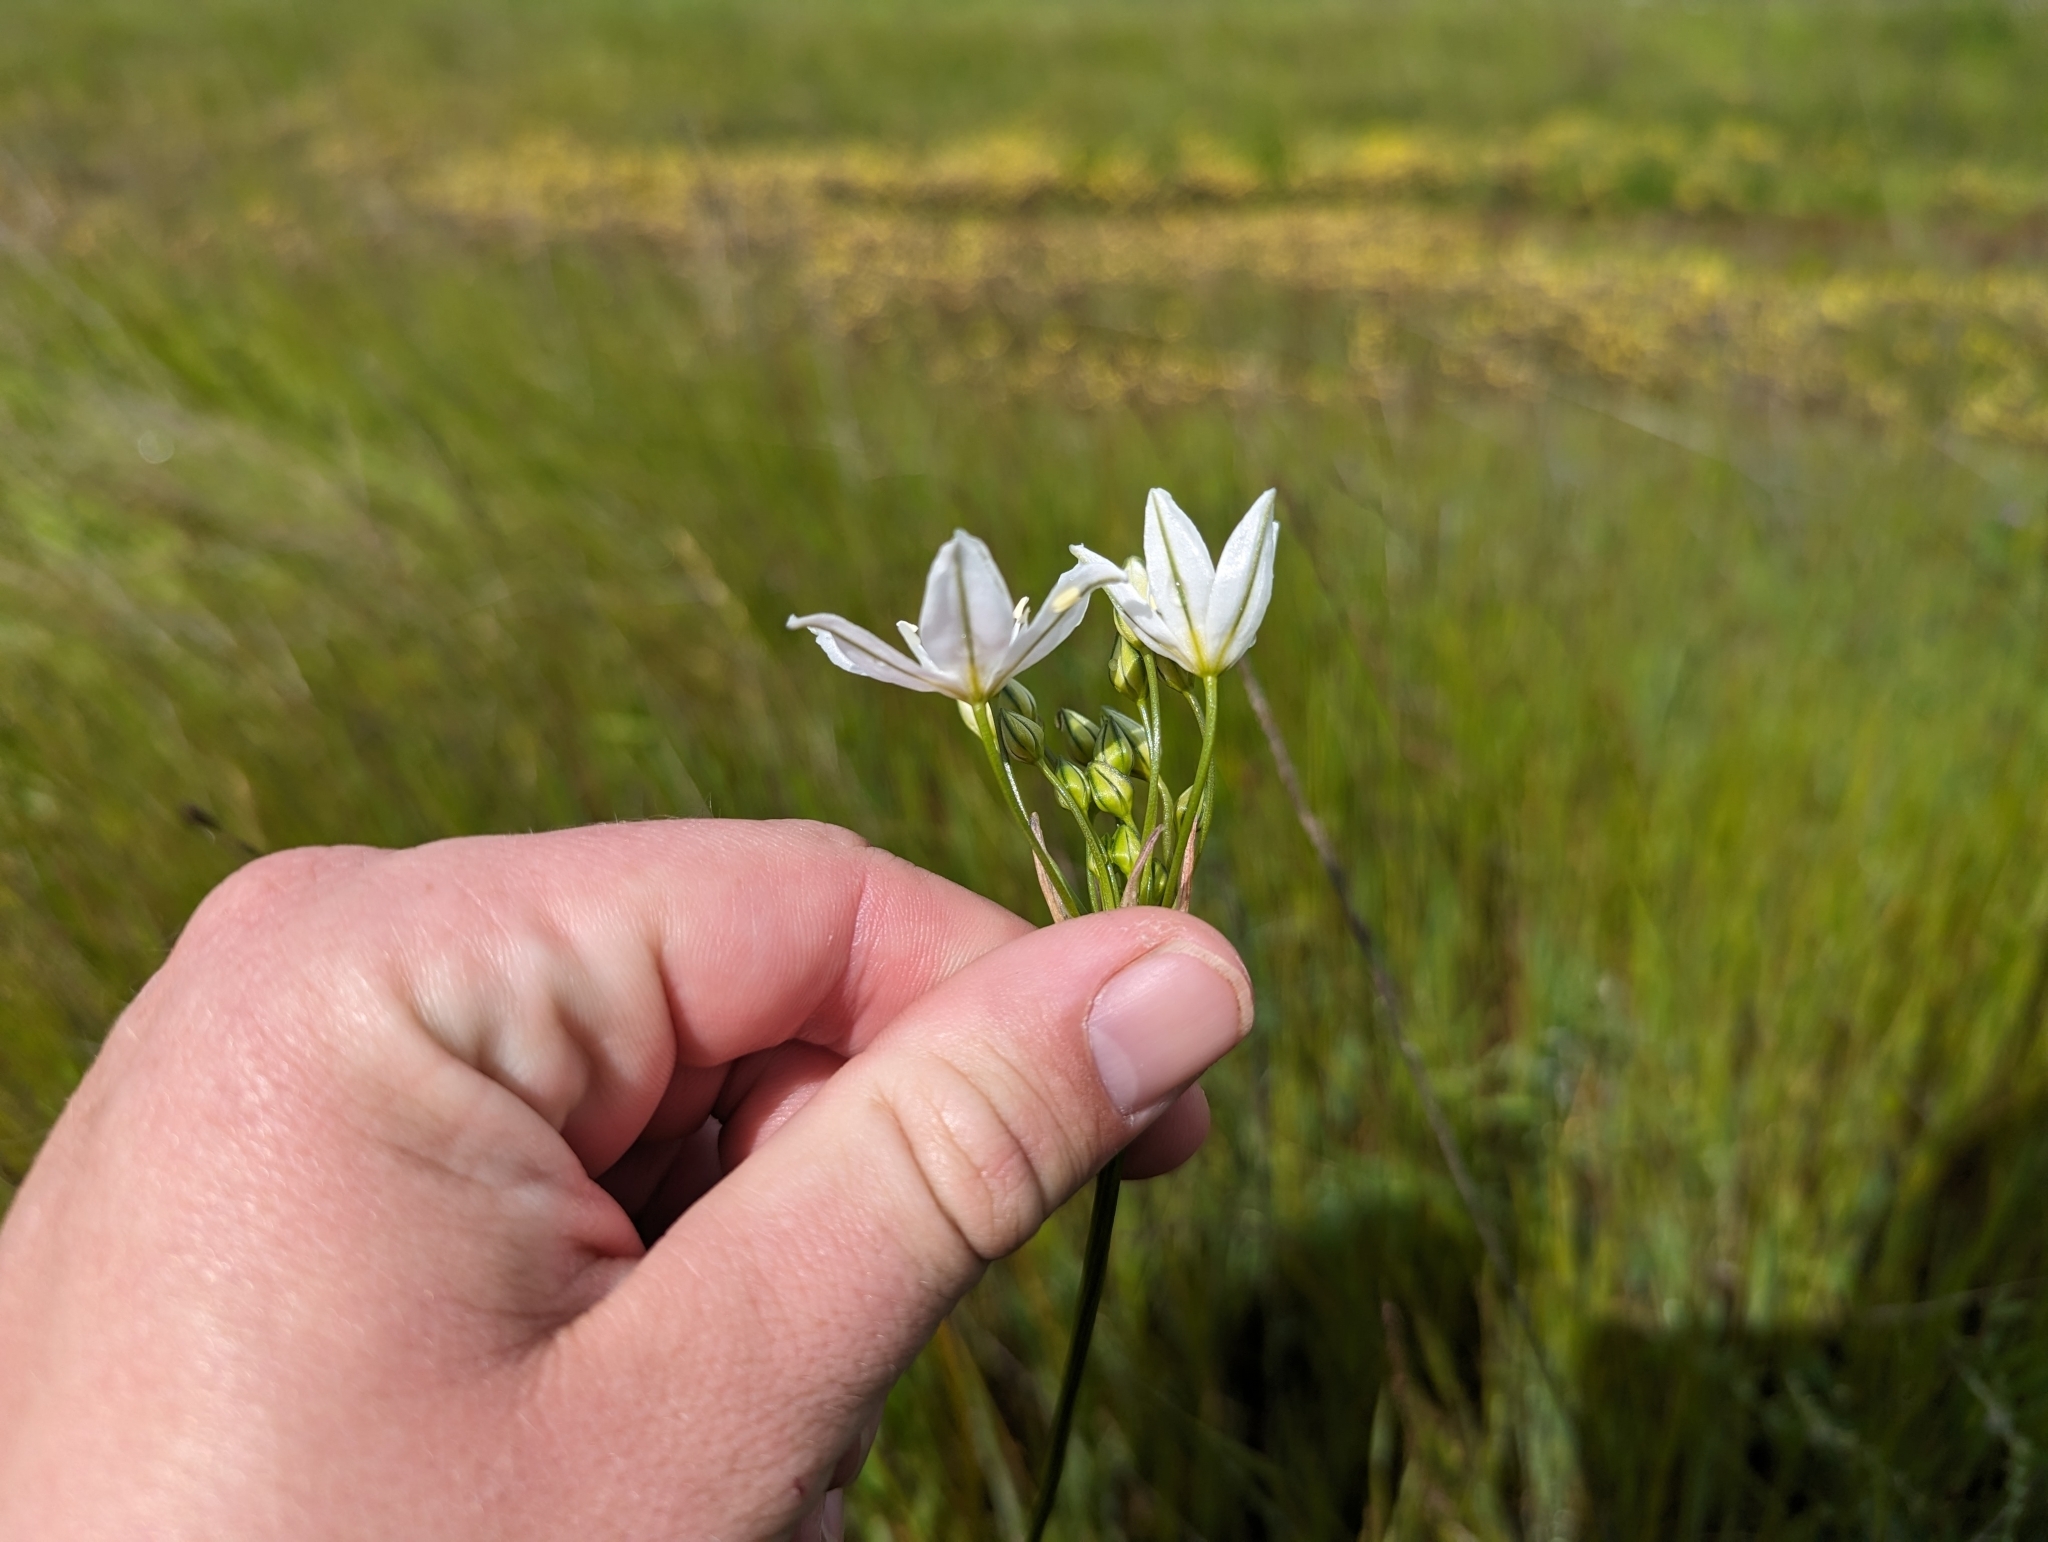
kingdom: Plantae
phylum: Tracheophyta
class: Liliopsida
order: Asparagales
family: Asparagaceae
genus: Triteleia
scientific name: Triteleia hyacinthina
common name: White brodiaea
